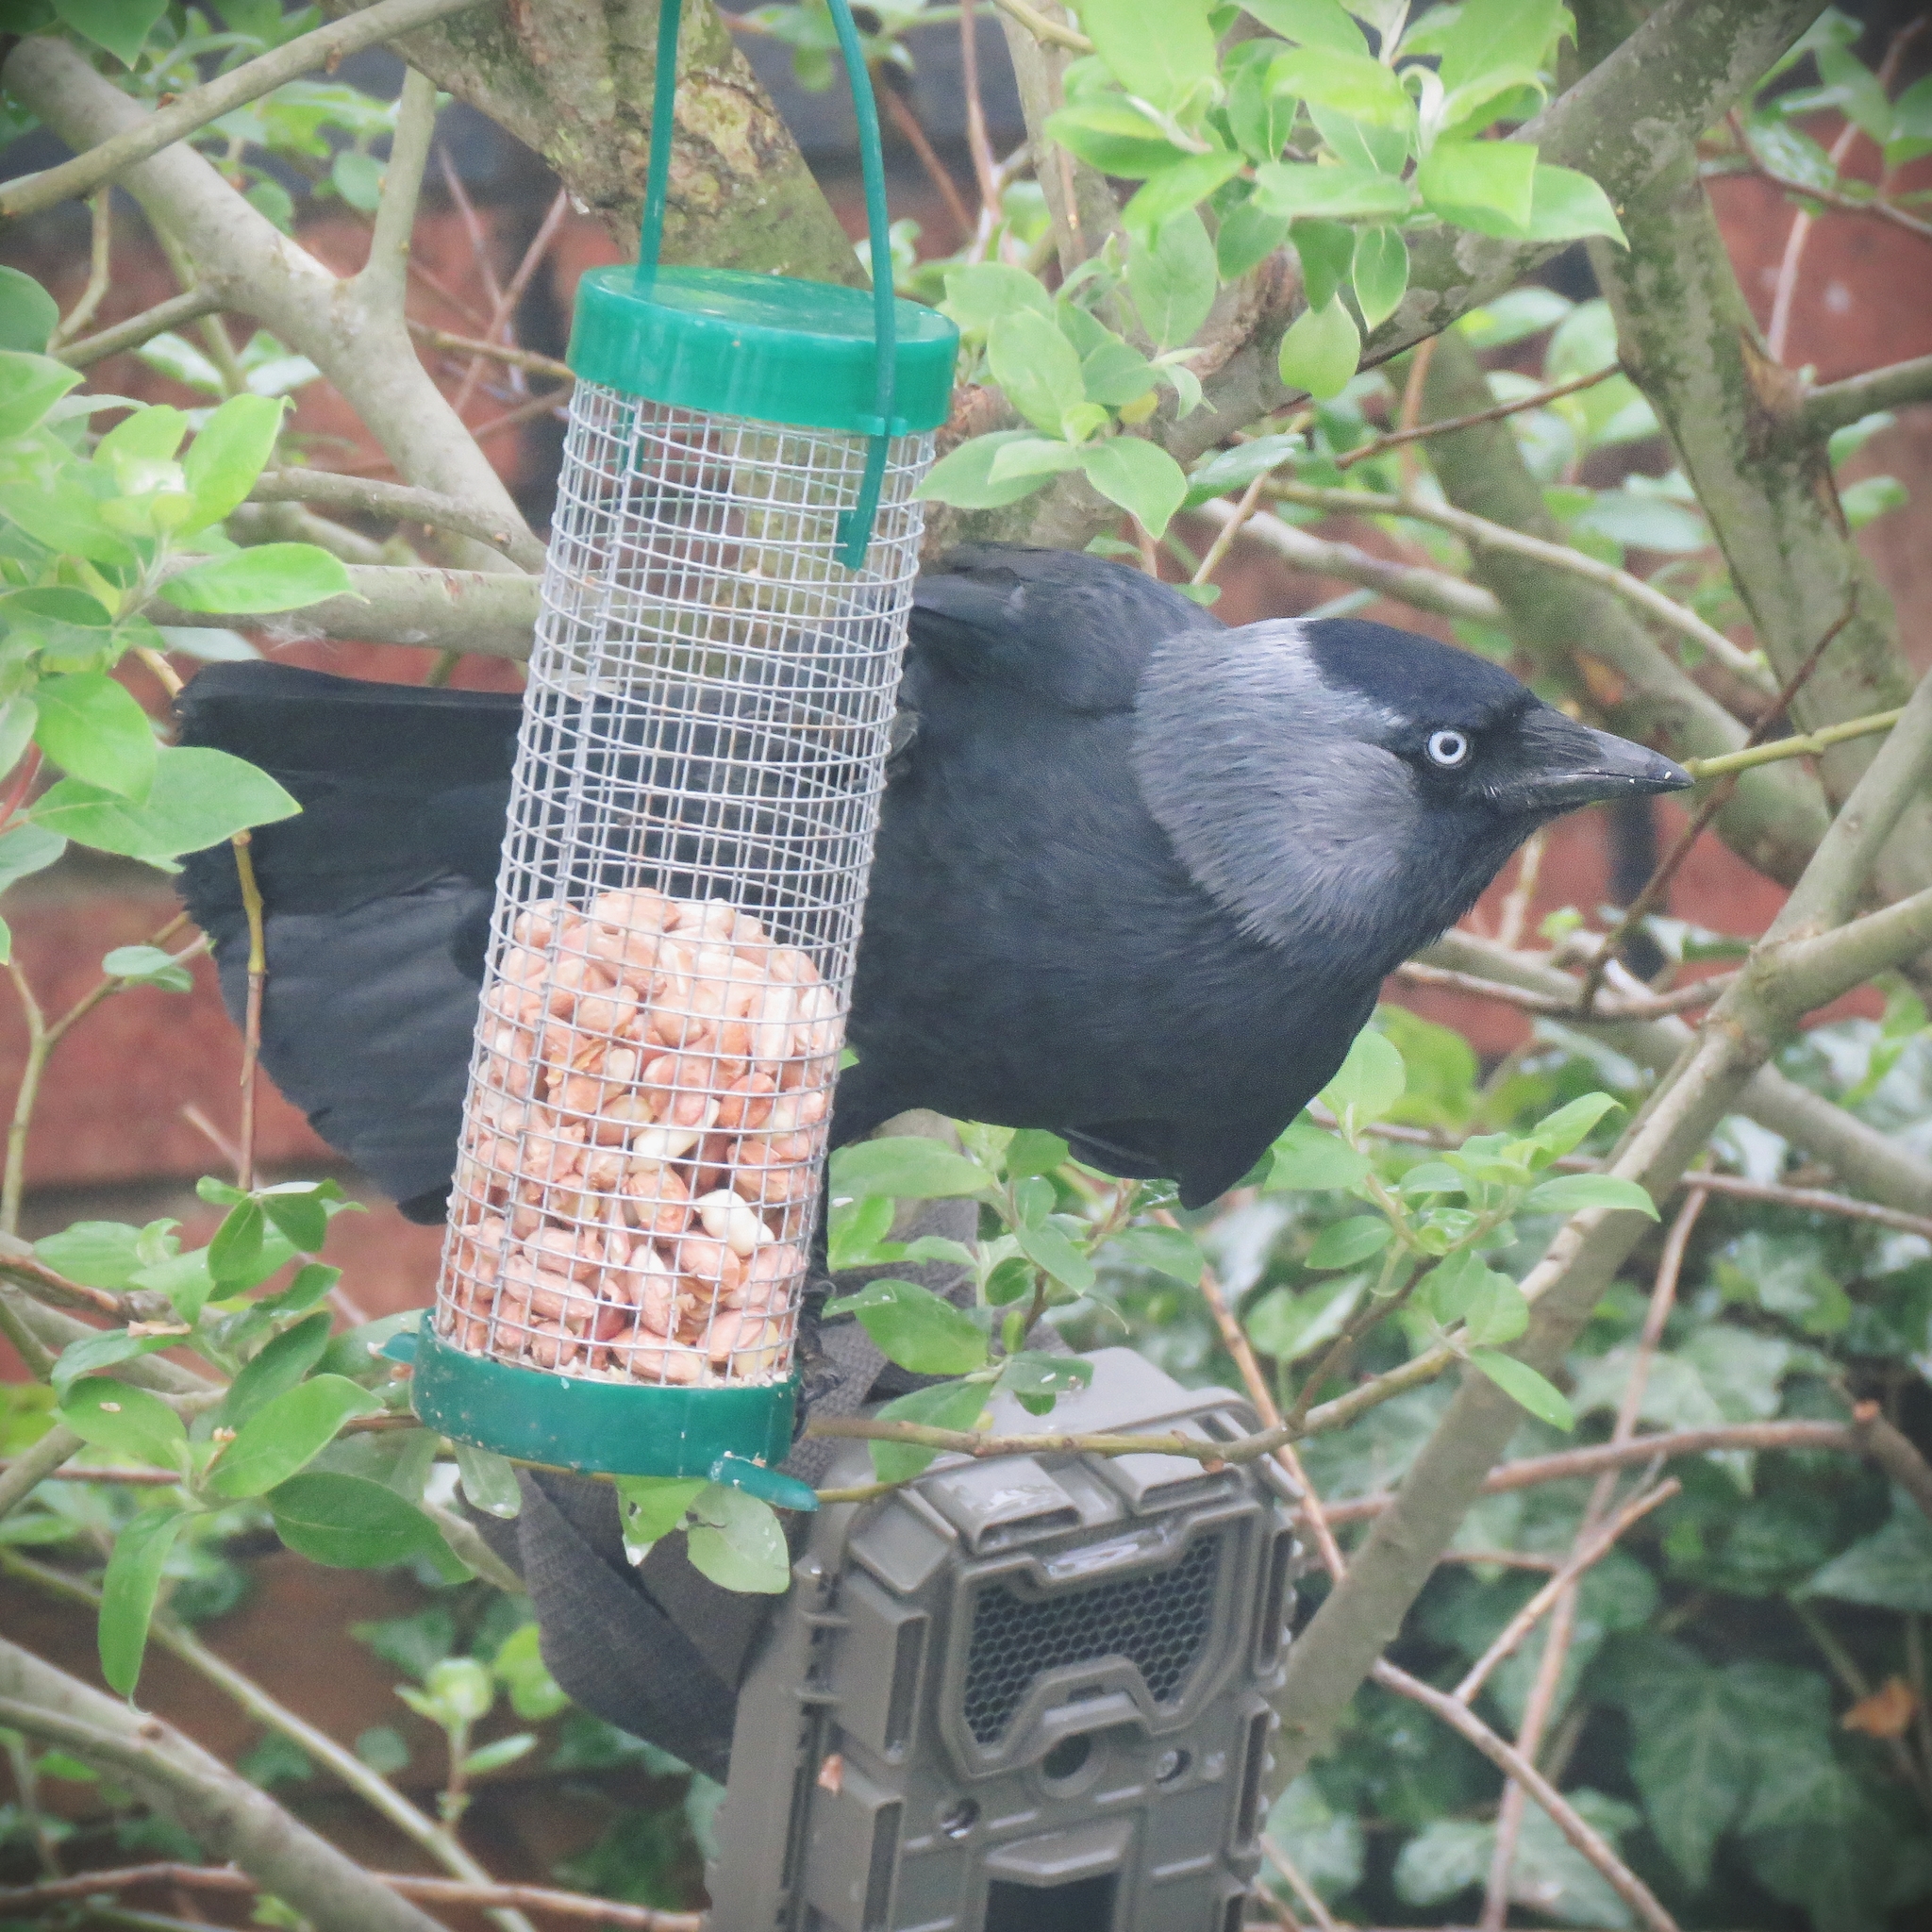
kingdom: Animalia
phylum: Chordata
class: Aves
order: Passeriformes
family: Corvidae
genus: Coloeus
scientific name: Coloeus monedula
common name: Western jackdaw
